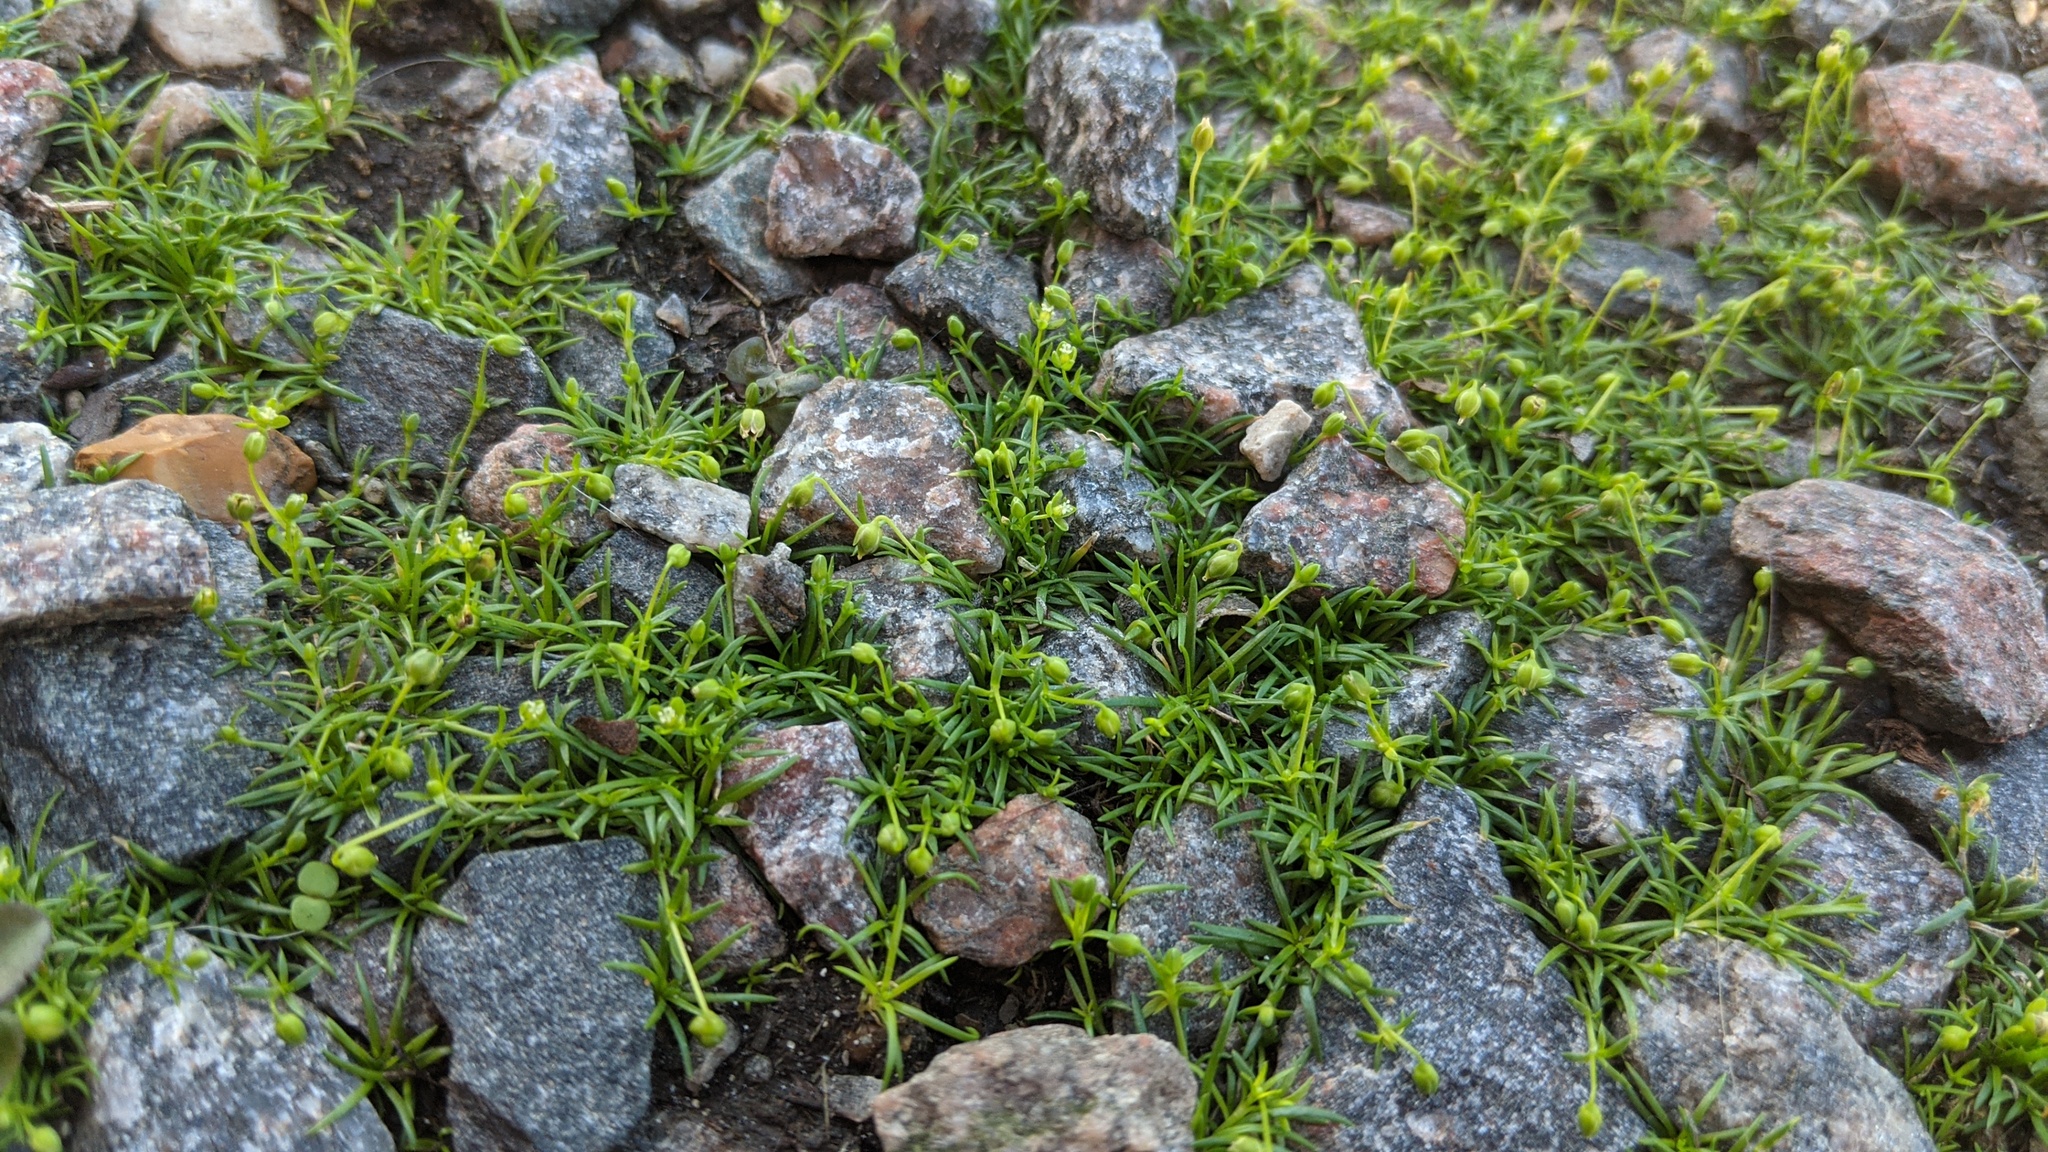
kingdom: Plantae
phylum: Tracheophyta
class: Magnoliopsida
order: Caryophyllales
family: Caryophyllaceae
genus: Sagina
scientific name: Sagina procumbens
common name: Procumbent pearlwort
